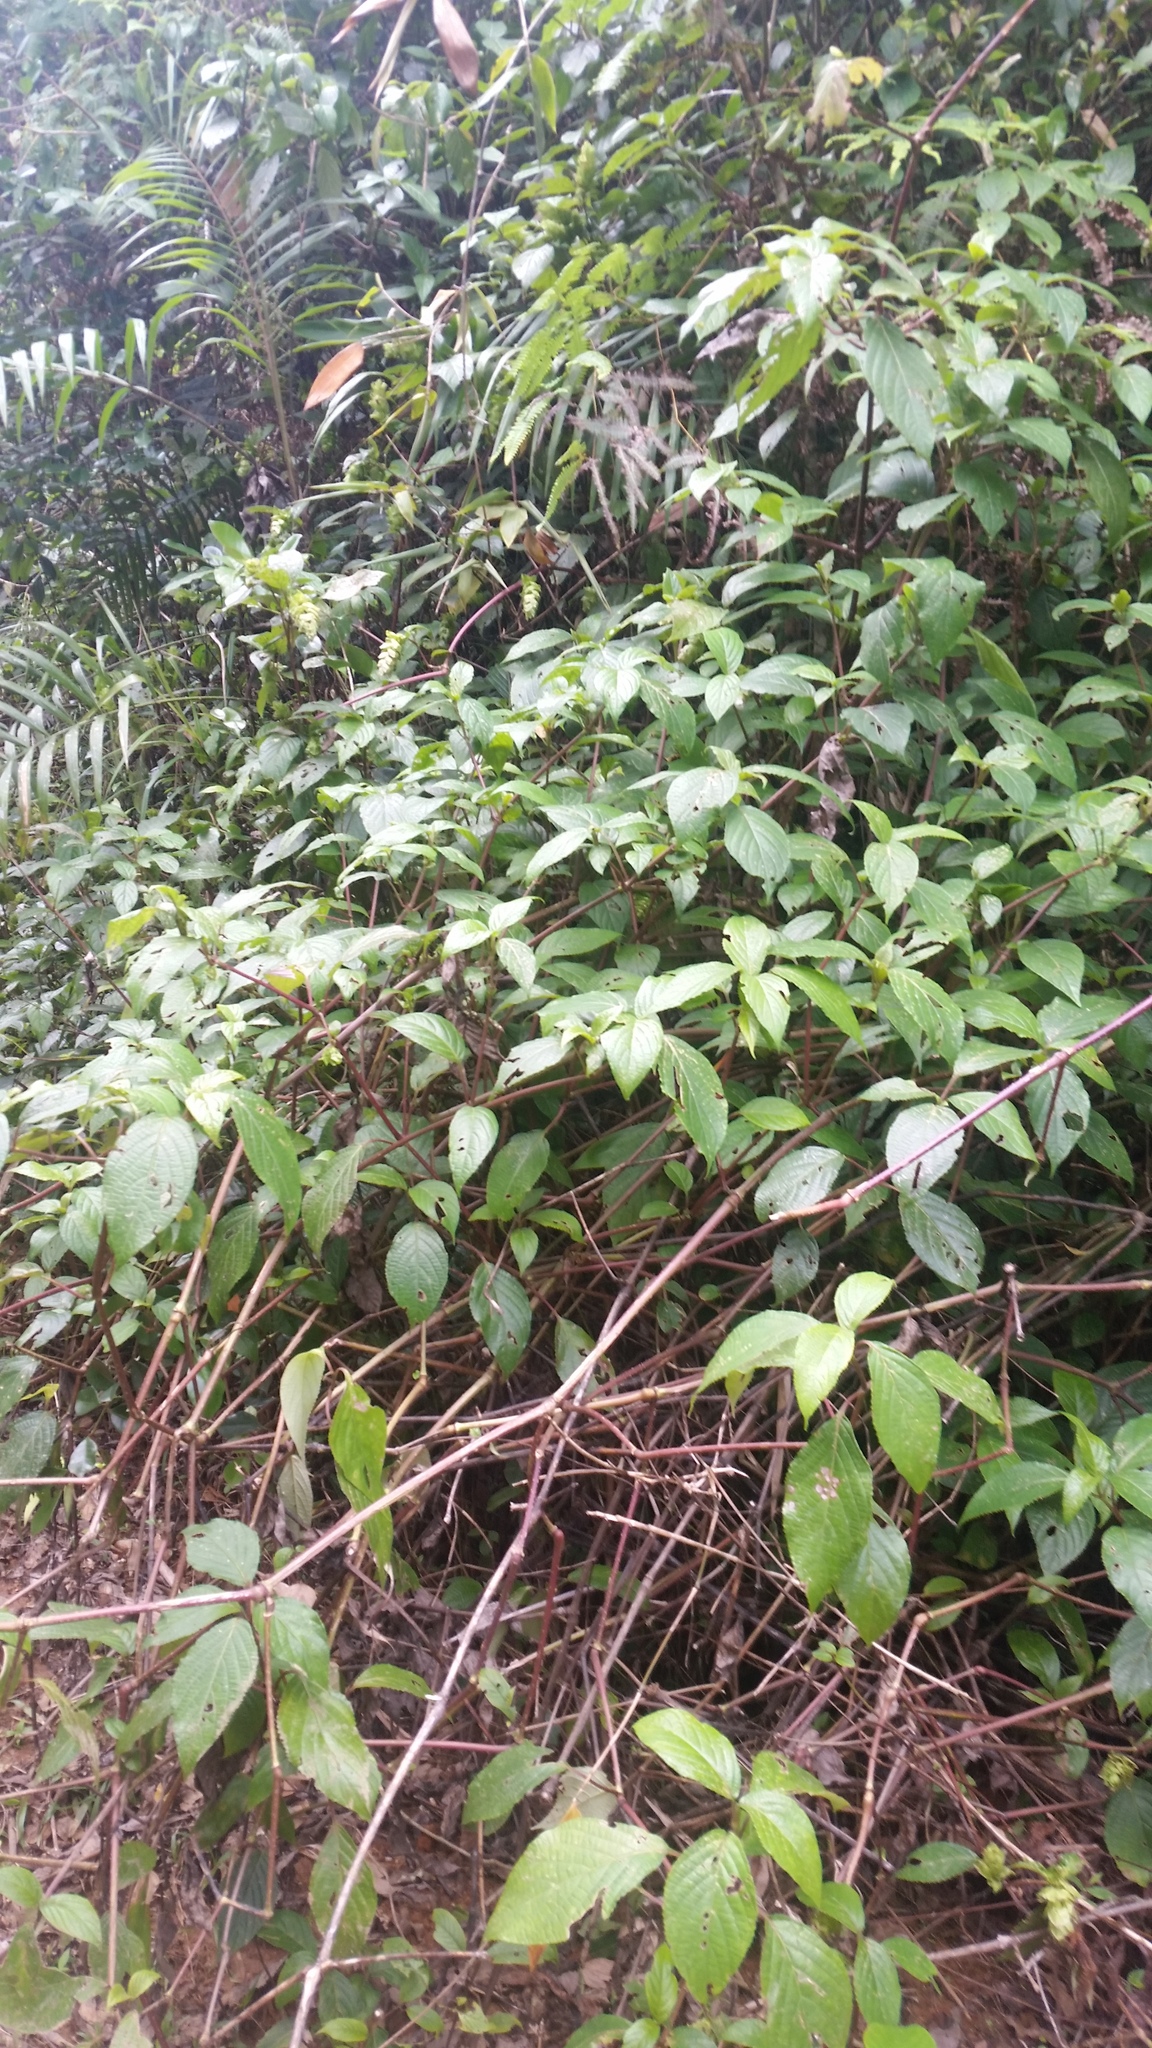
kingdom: Plantae
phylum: Tracheophyta
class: Magnoliopsida
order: Lamiales
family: Acanthaceae
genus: Strobilanthes
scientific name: Strobilanthes hookeri
